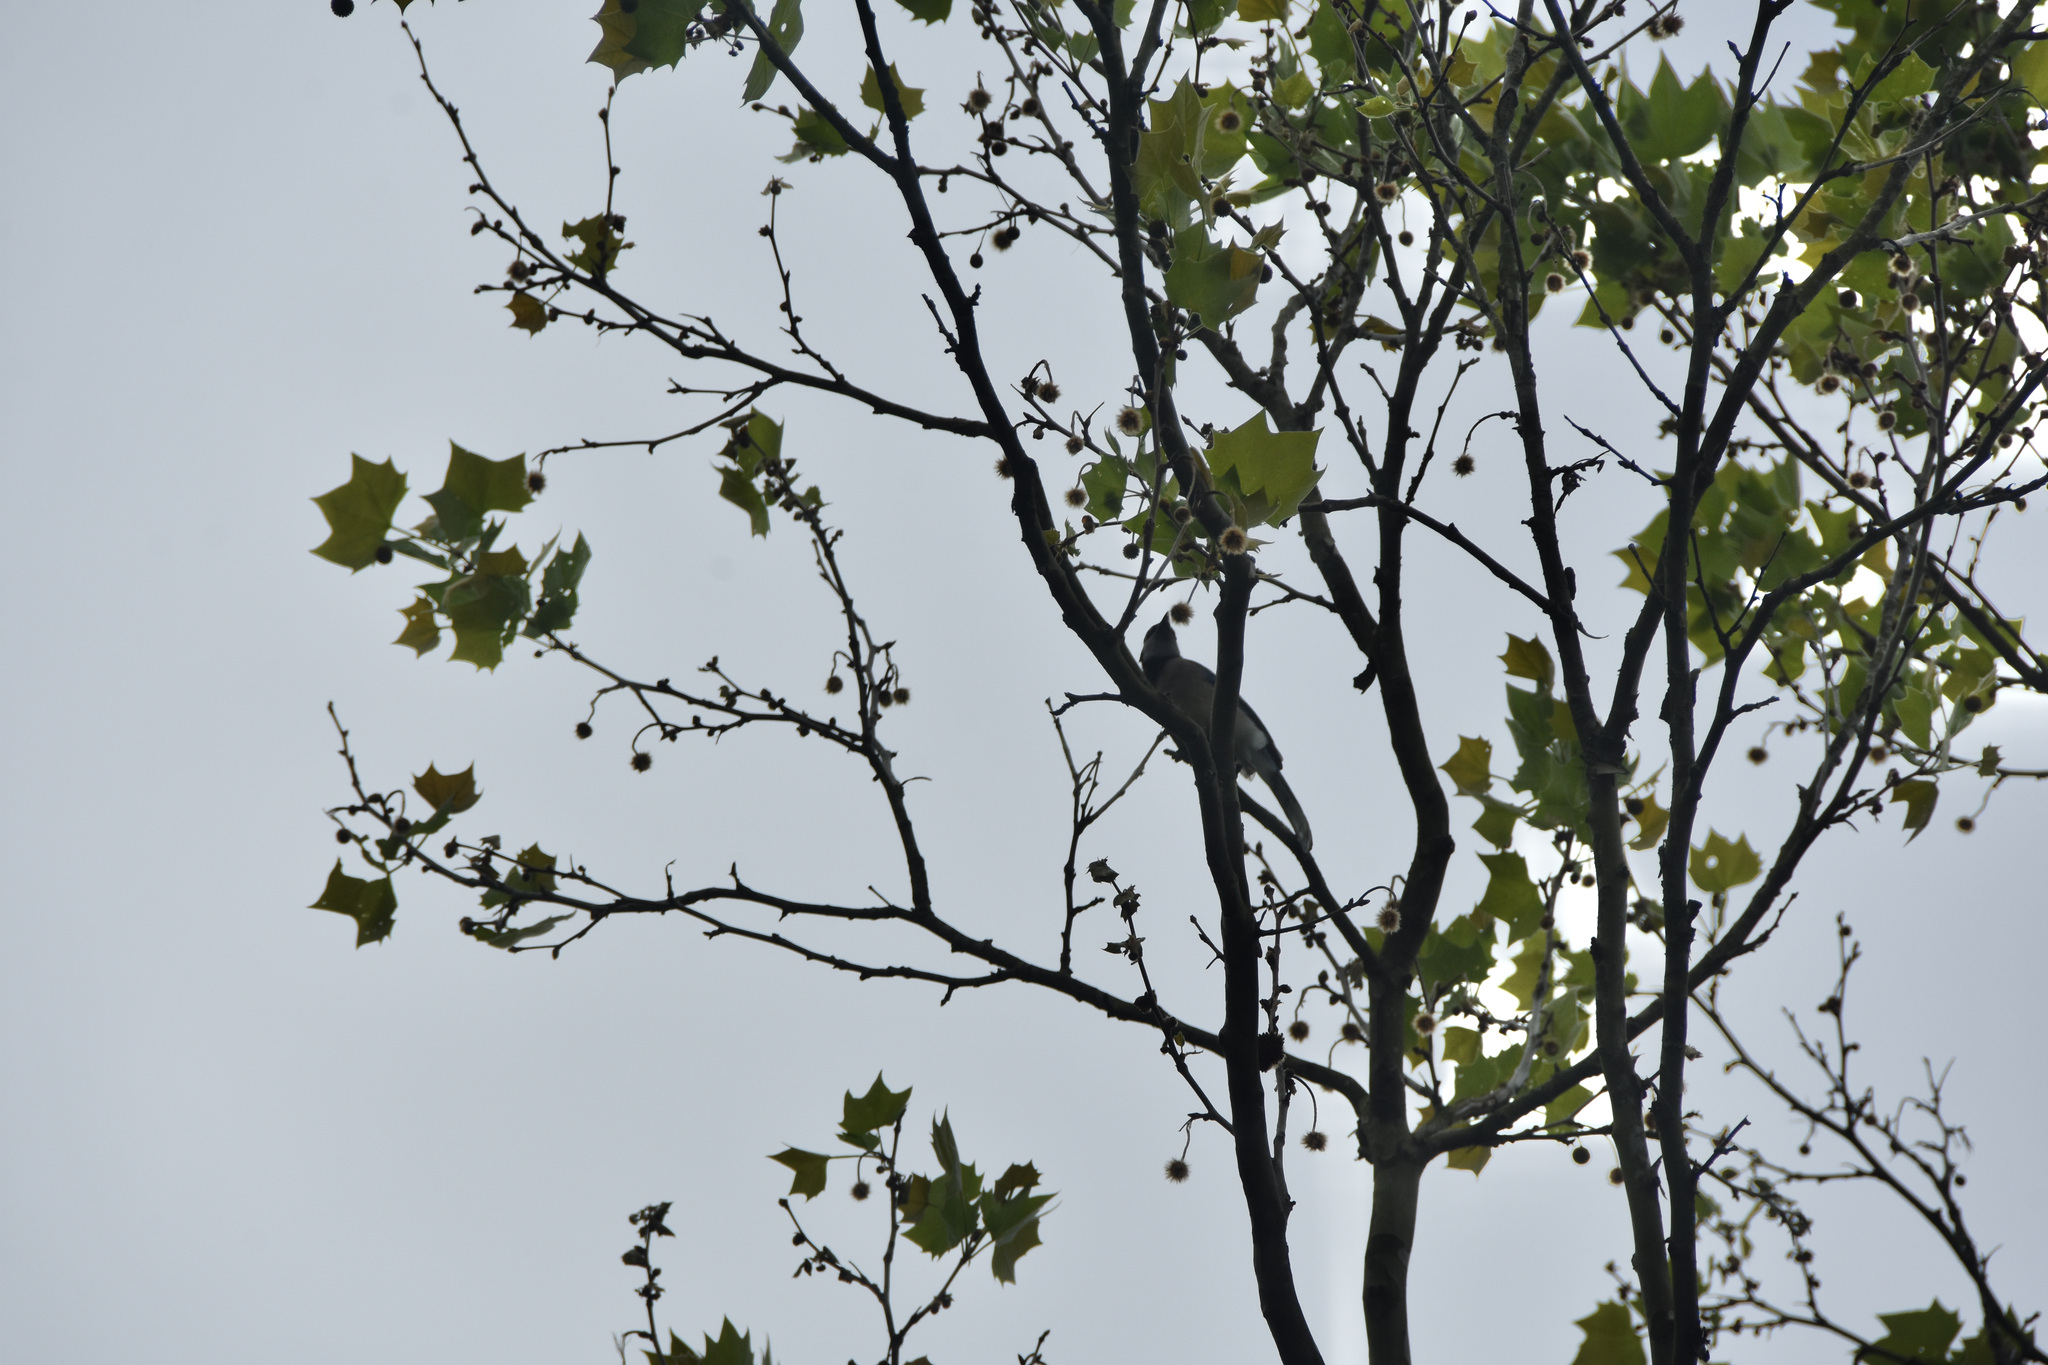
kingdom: Animalia
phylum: Chordata
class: Aves
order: Passeriformes
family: Corvidae
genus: Cyanocitta
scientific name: Cyanocitta cristata
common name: Blue jay
